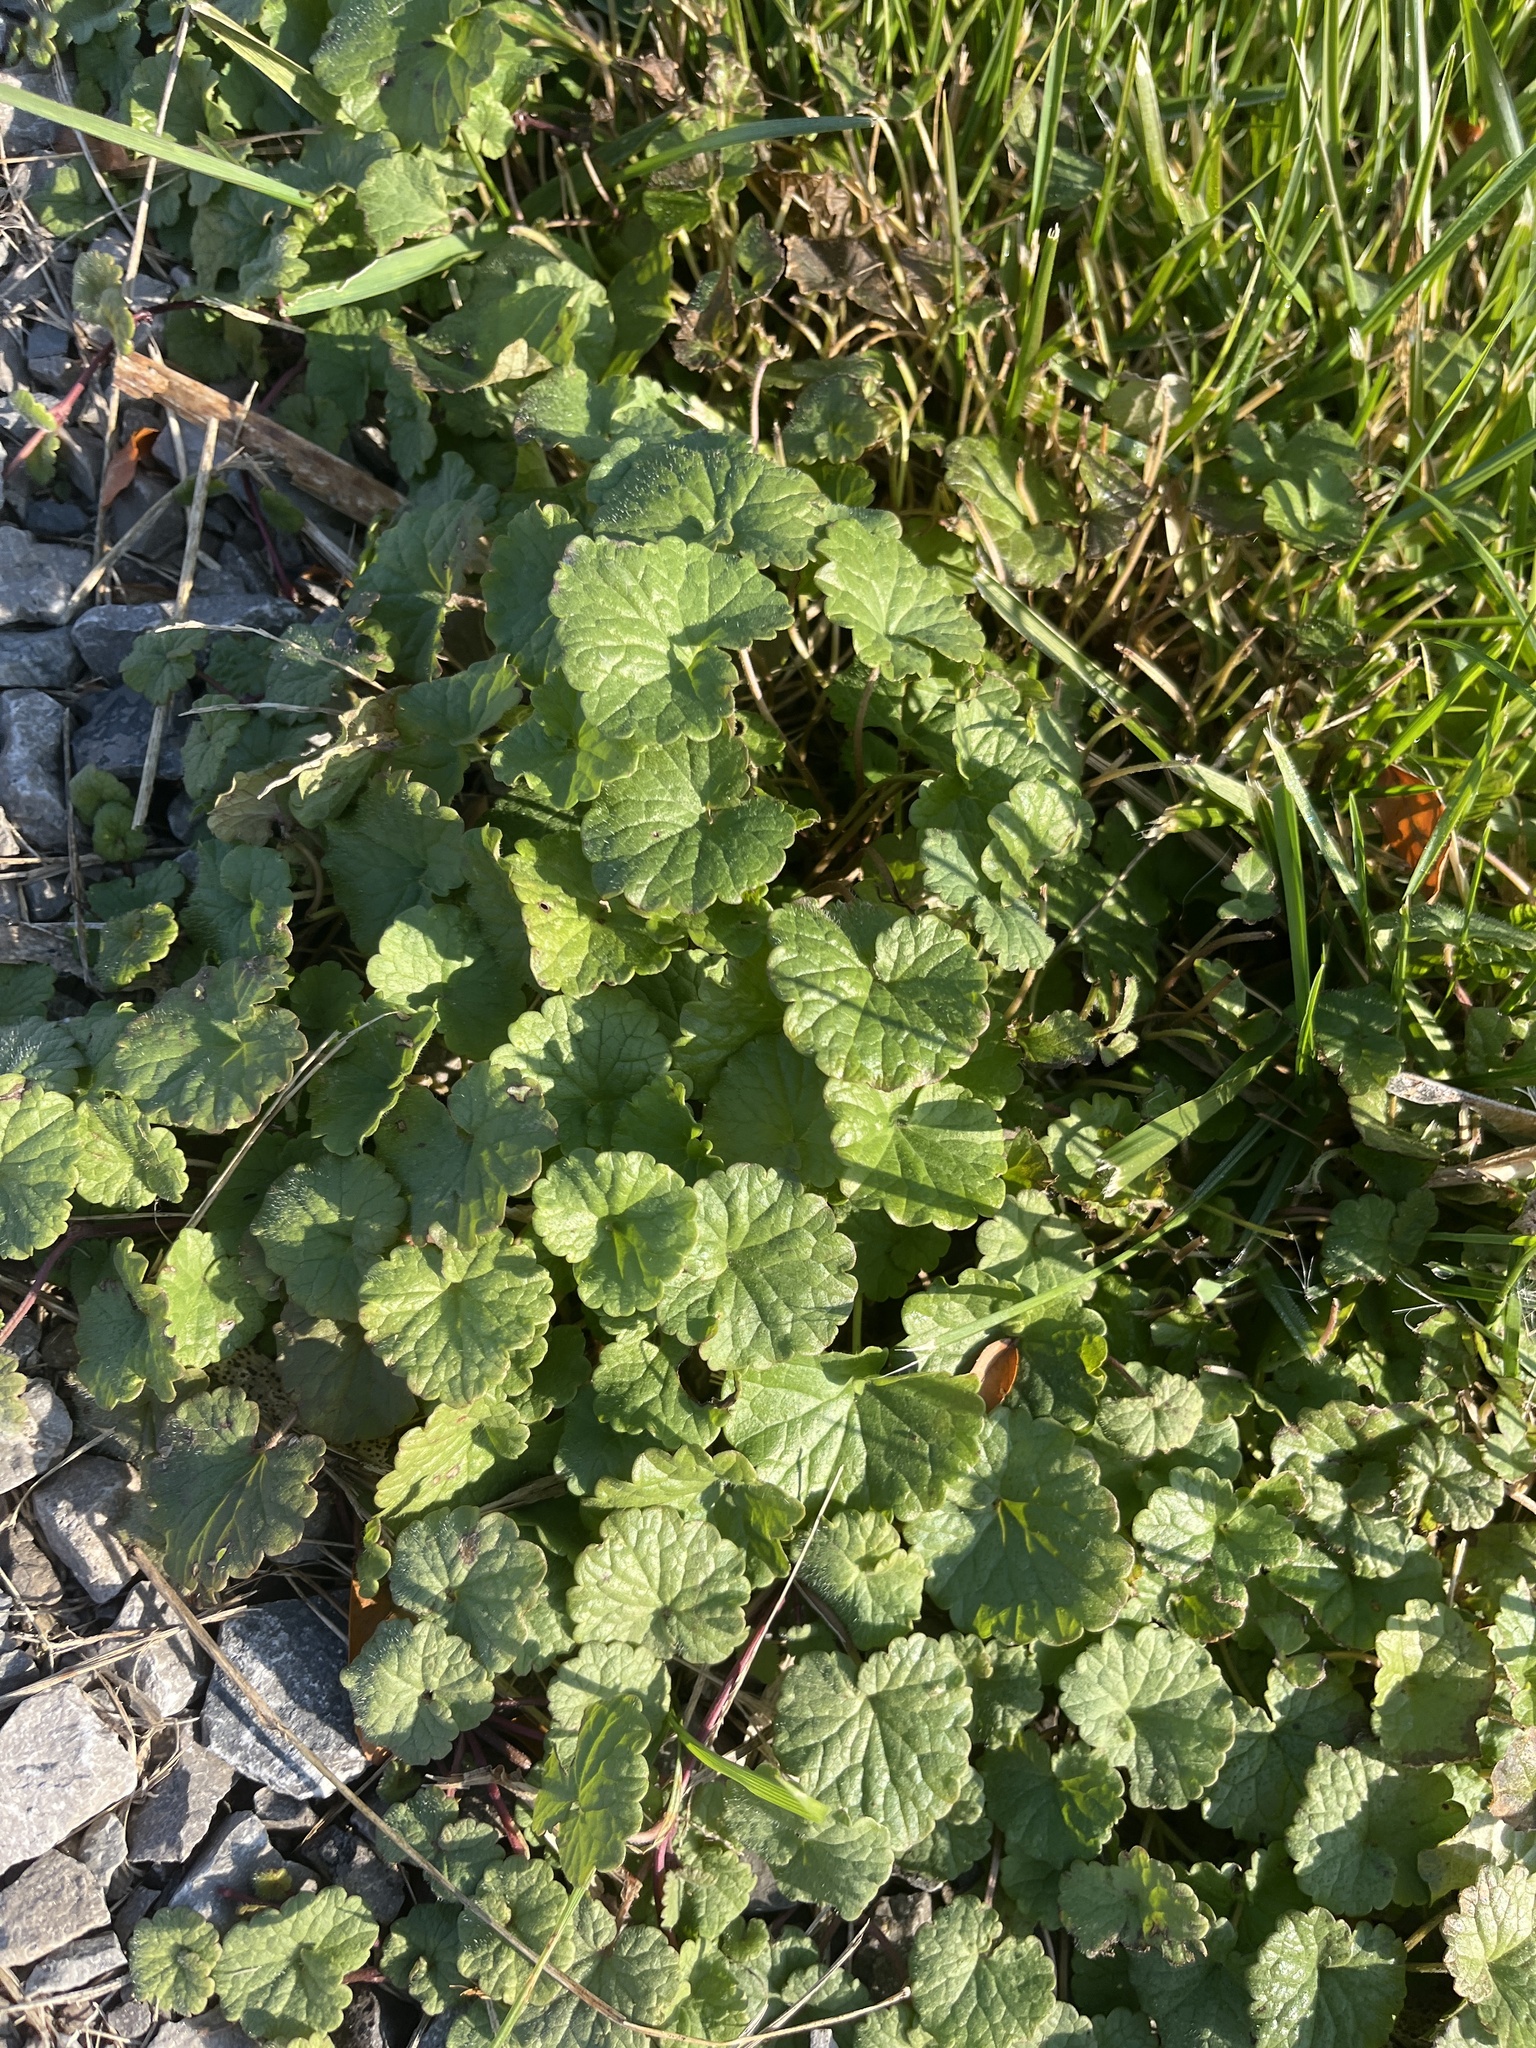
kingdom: Plantae
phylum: Tracheophyta
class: Magnoliopsida
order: Lamiales
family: Lamiaceae
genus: Glechoma
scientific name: Glechoma hederacea
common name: Ground ivy
